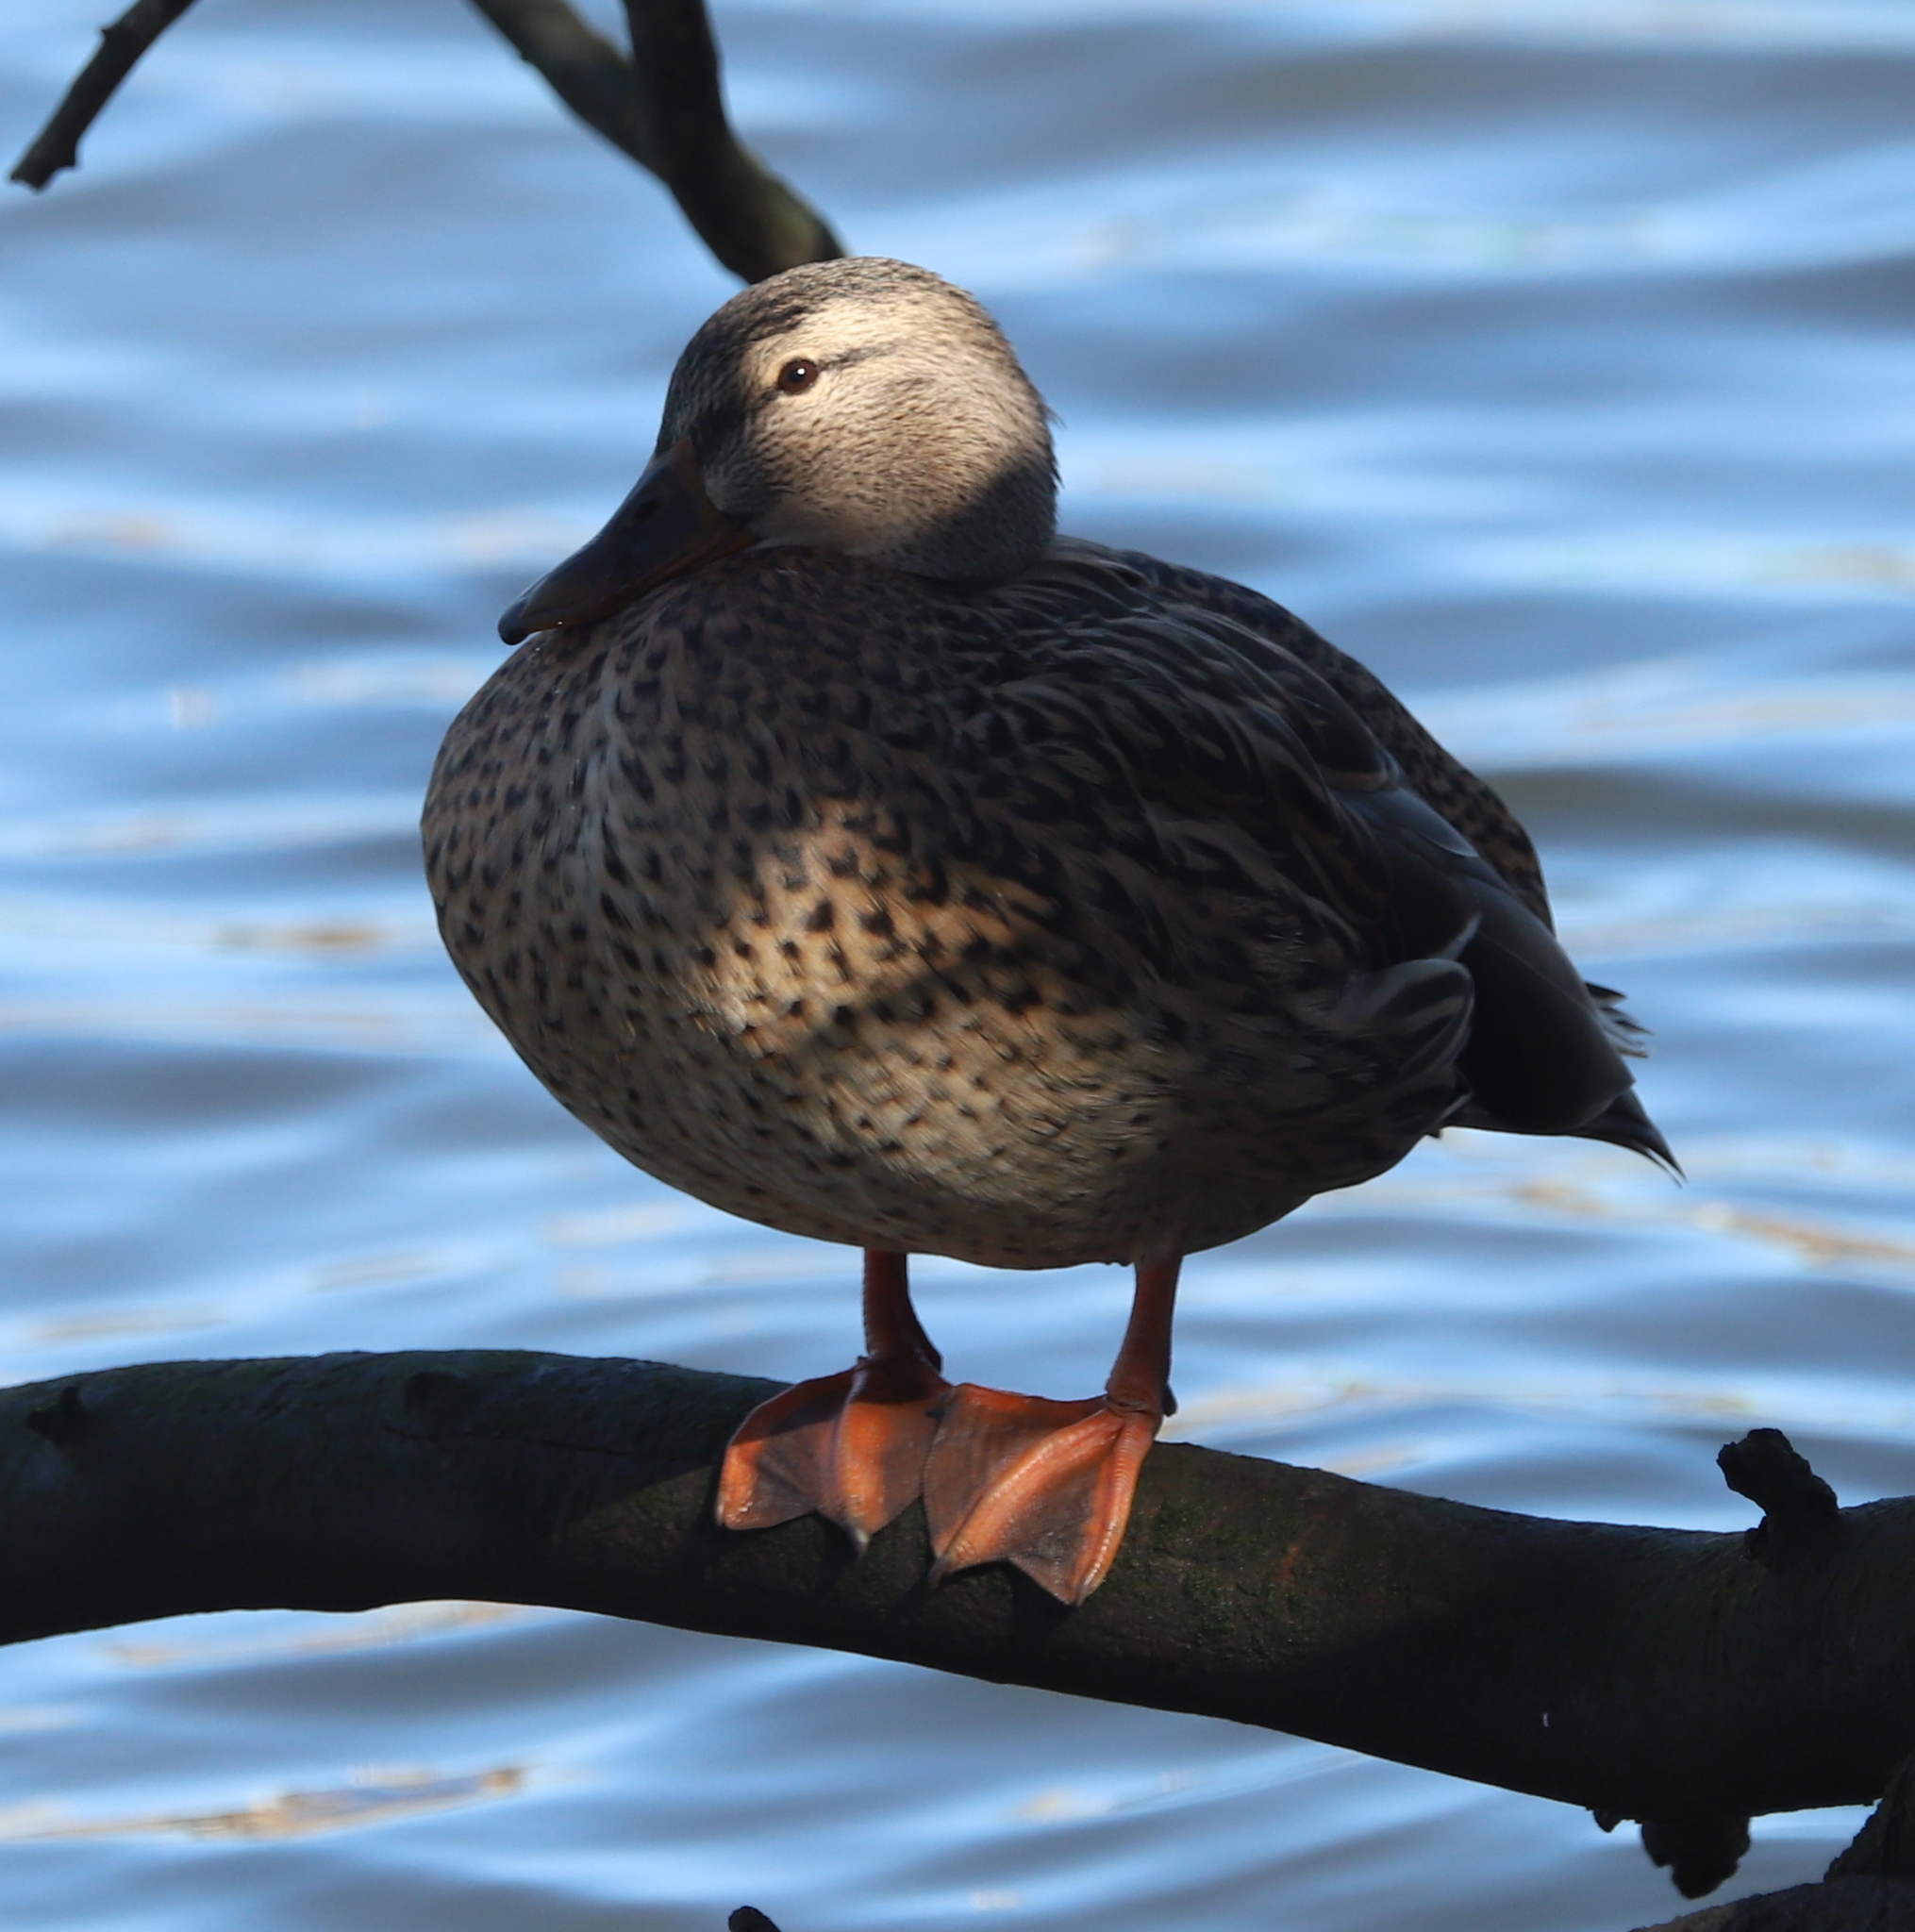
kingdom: Animalia
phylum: Chordata
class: Aves
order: Anseriformes
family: Anatidae
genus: Mareca
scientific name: Mareca strepera
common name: Gadwall
